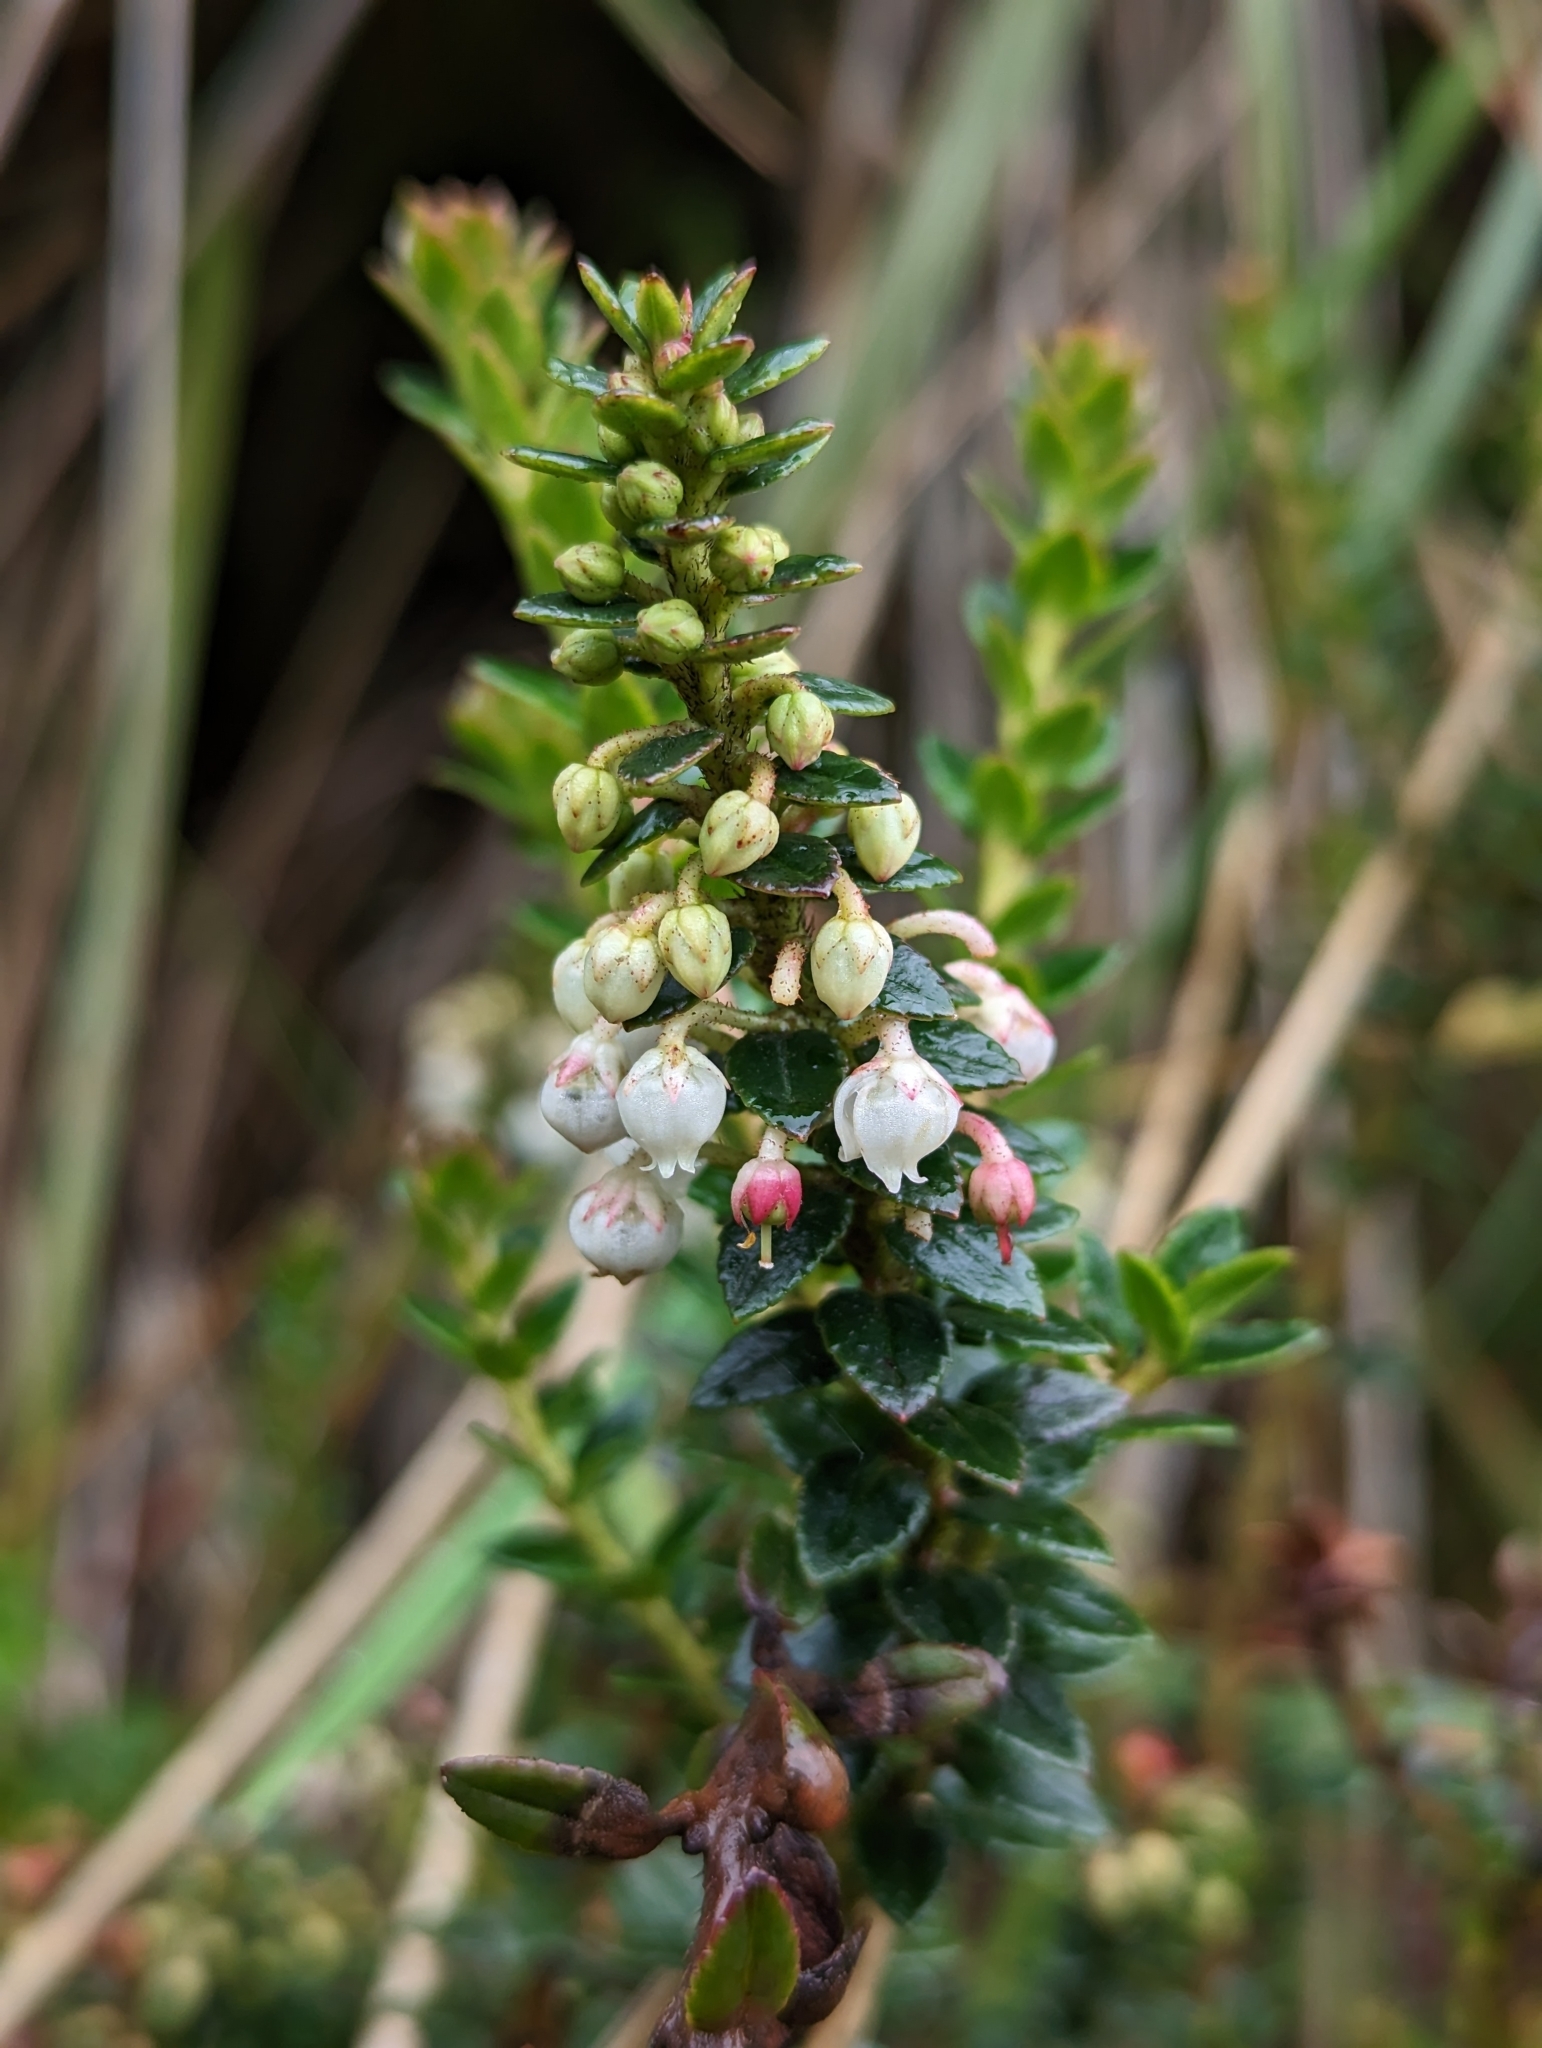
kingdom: Plantae
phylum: Tracheophyta
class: Magnoliopsida
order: Ericales
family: Ericaceae
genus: Gaultheria
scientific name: Gaultheria myrsinoides
